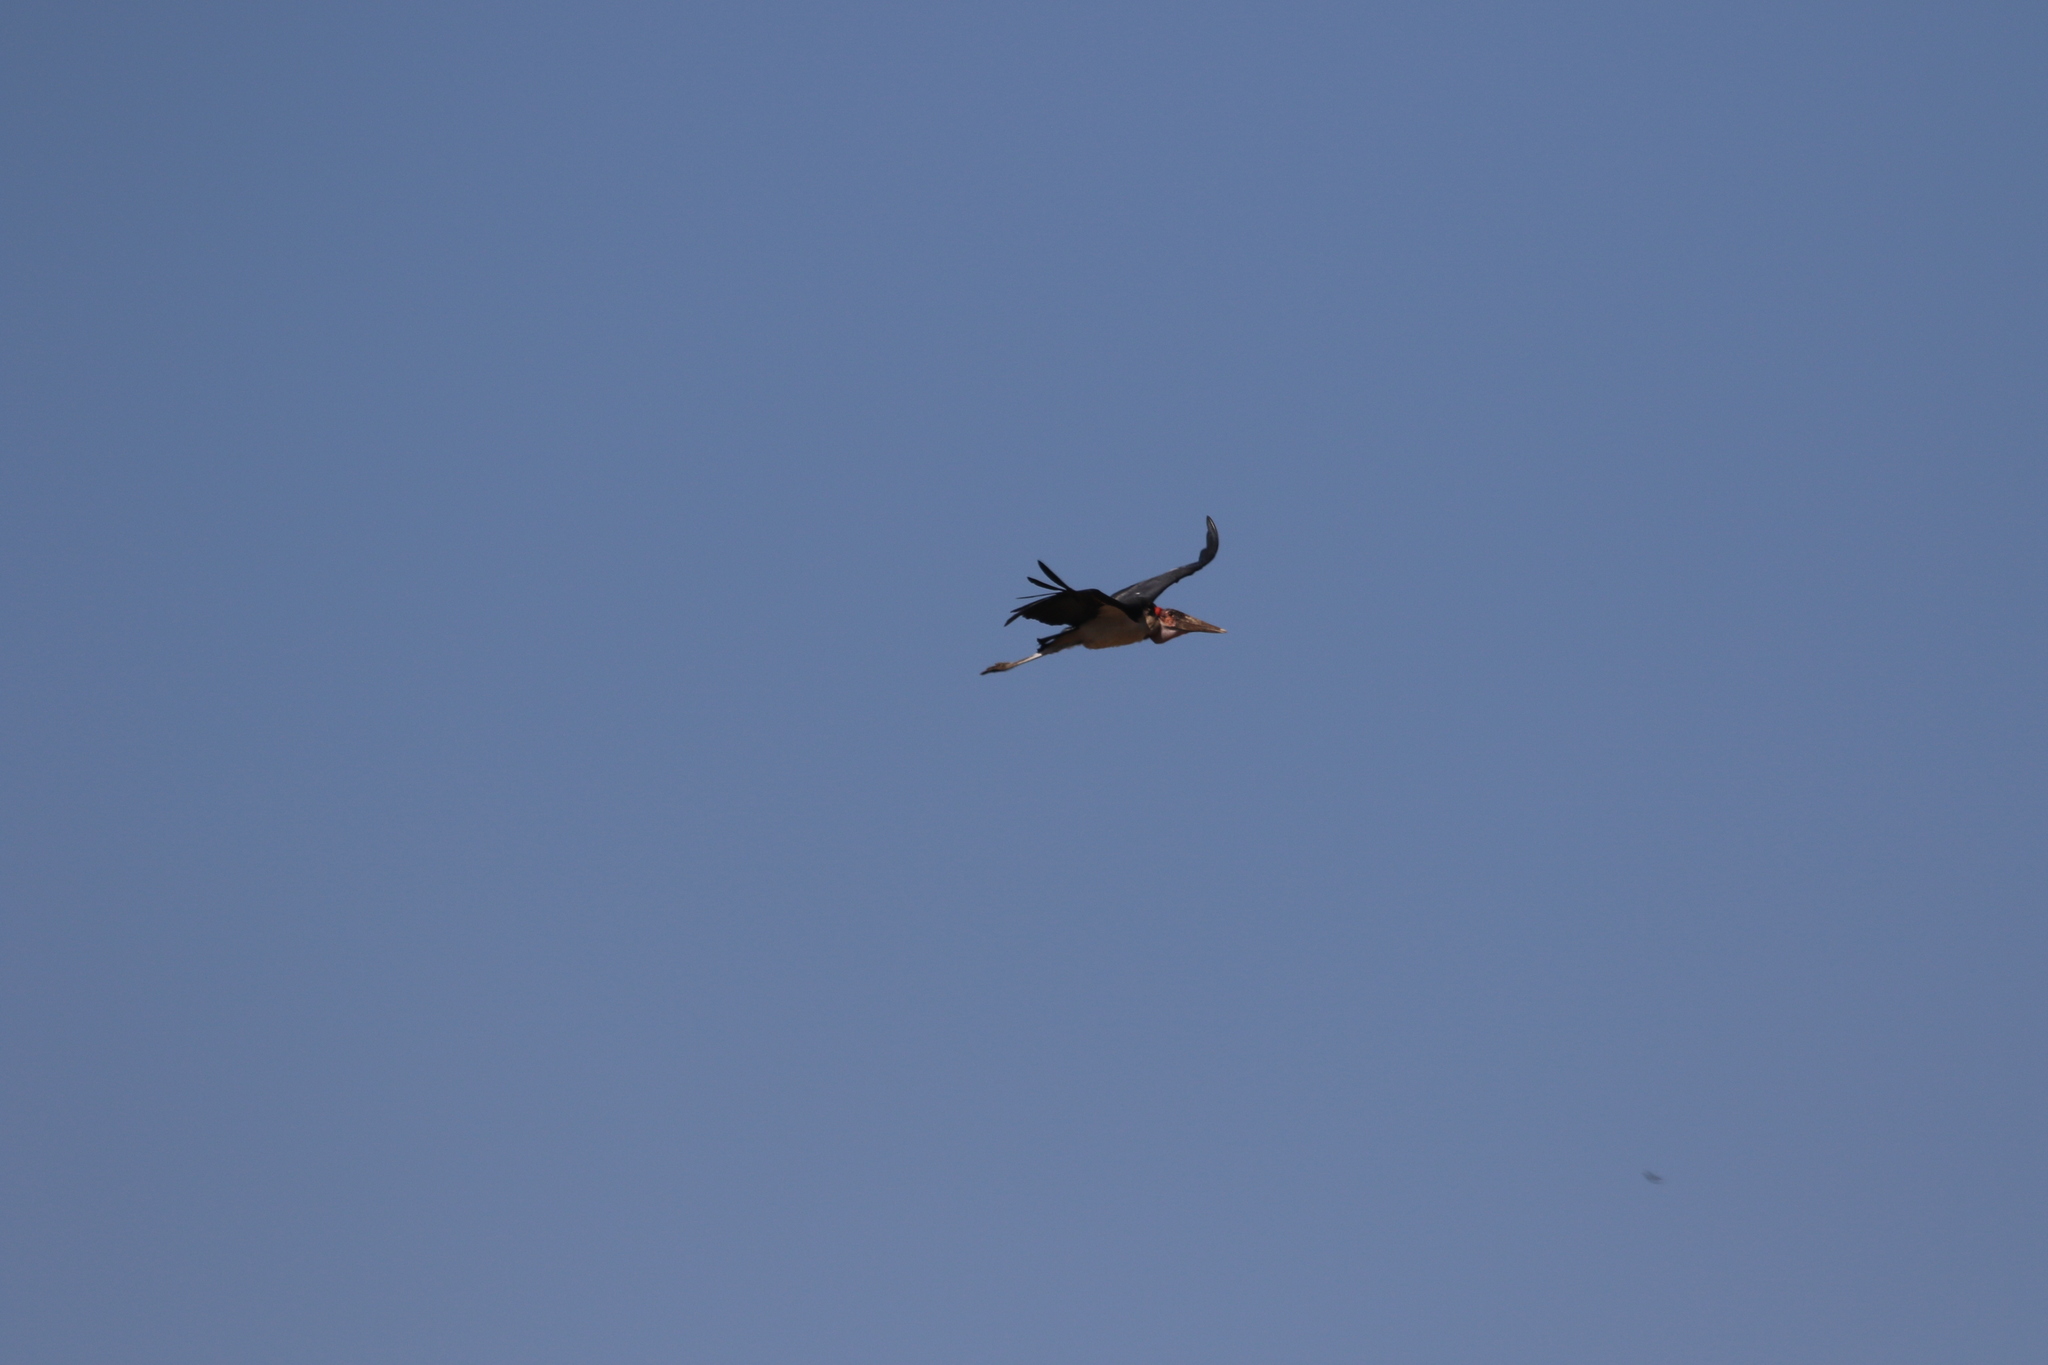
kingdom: Animalia
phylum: Chordata
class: Aves
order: Ciconiiformes
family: Ciconiidae
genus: Leptoptilos
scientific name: Leptoptilos crumenifer
